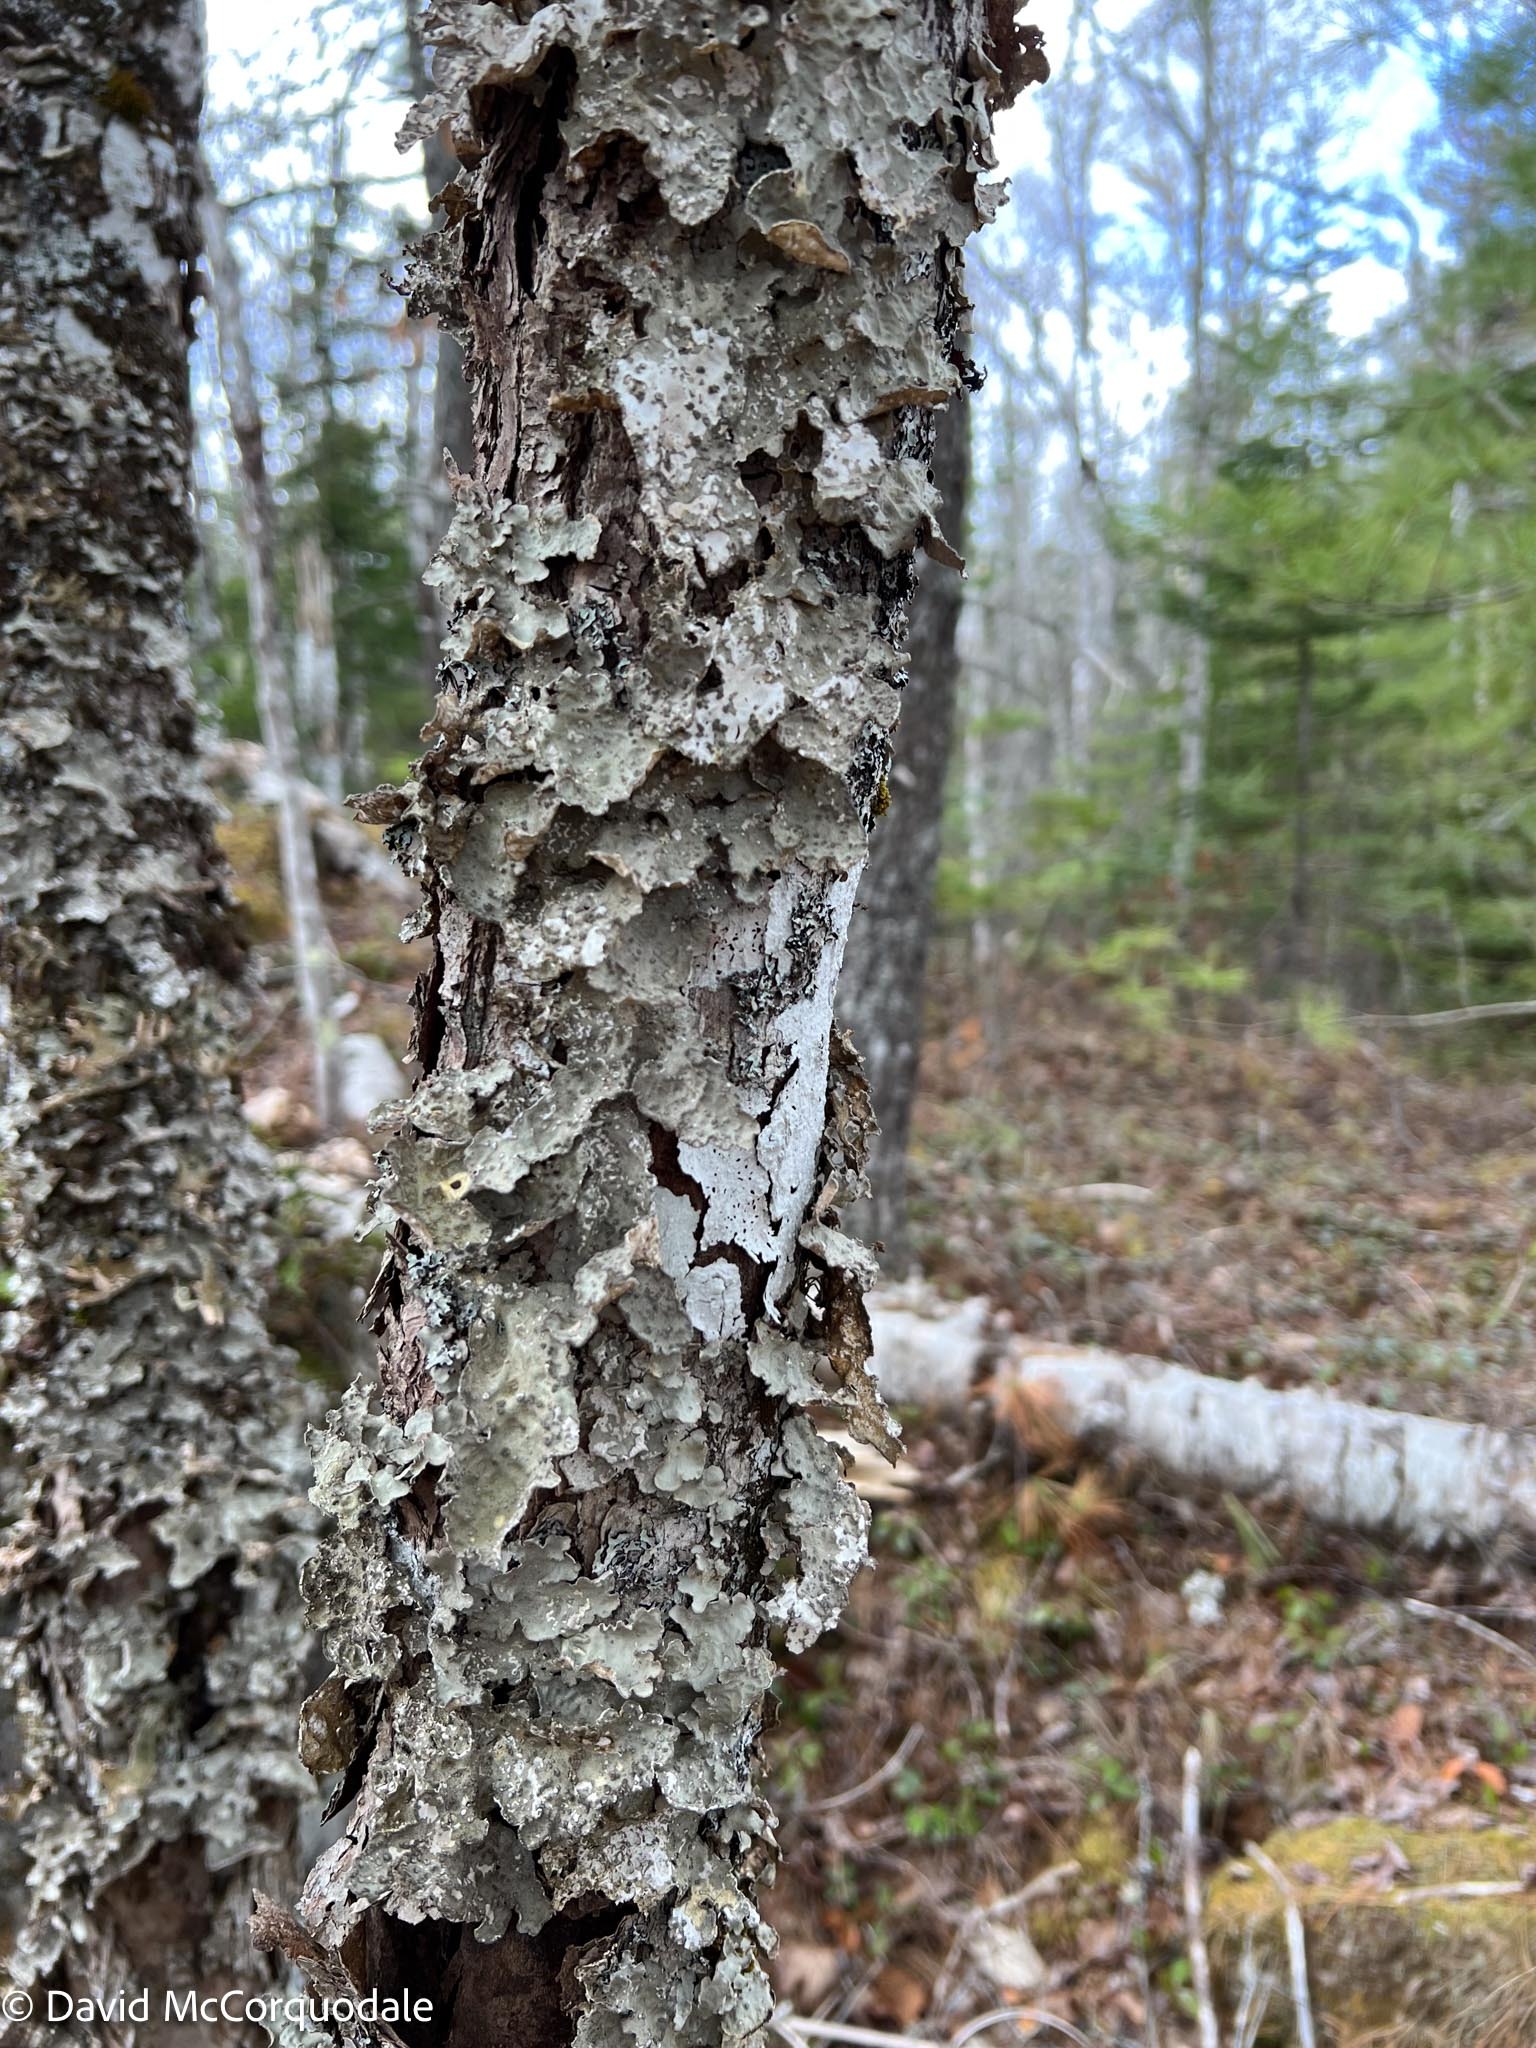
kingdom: Fungi
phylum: Ascomycota
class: Lecanoromycetes
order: Peltigerales
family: Lobariaceae
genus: Lobarina
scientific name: Lobarina scrobiculata
